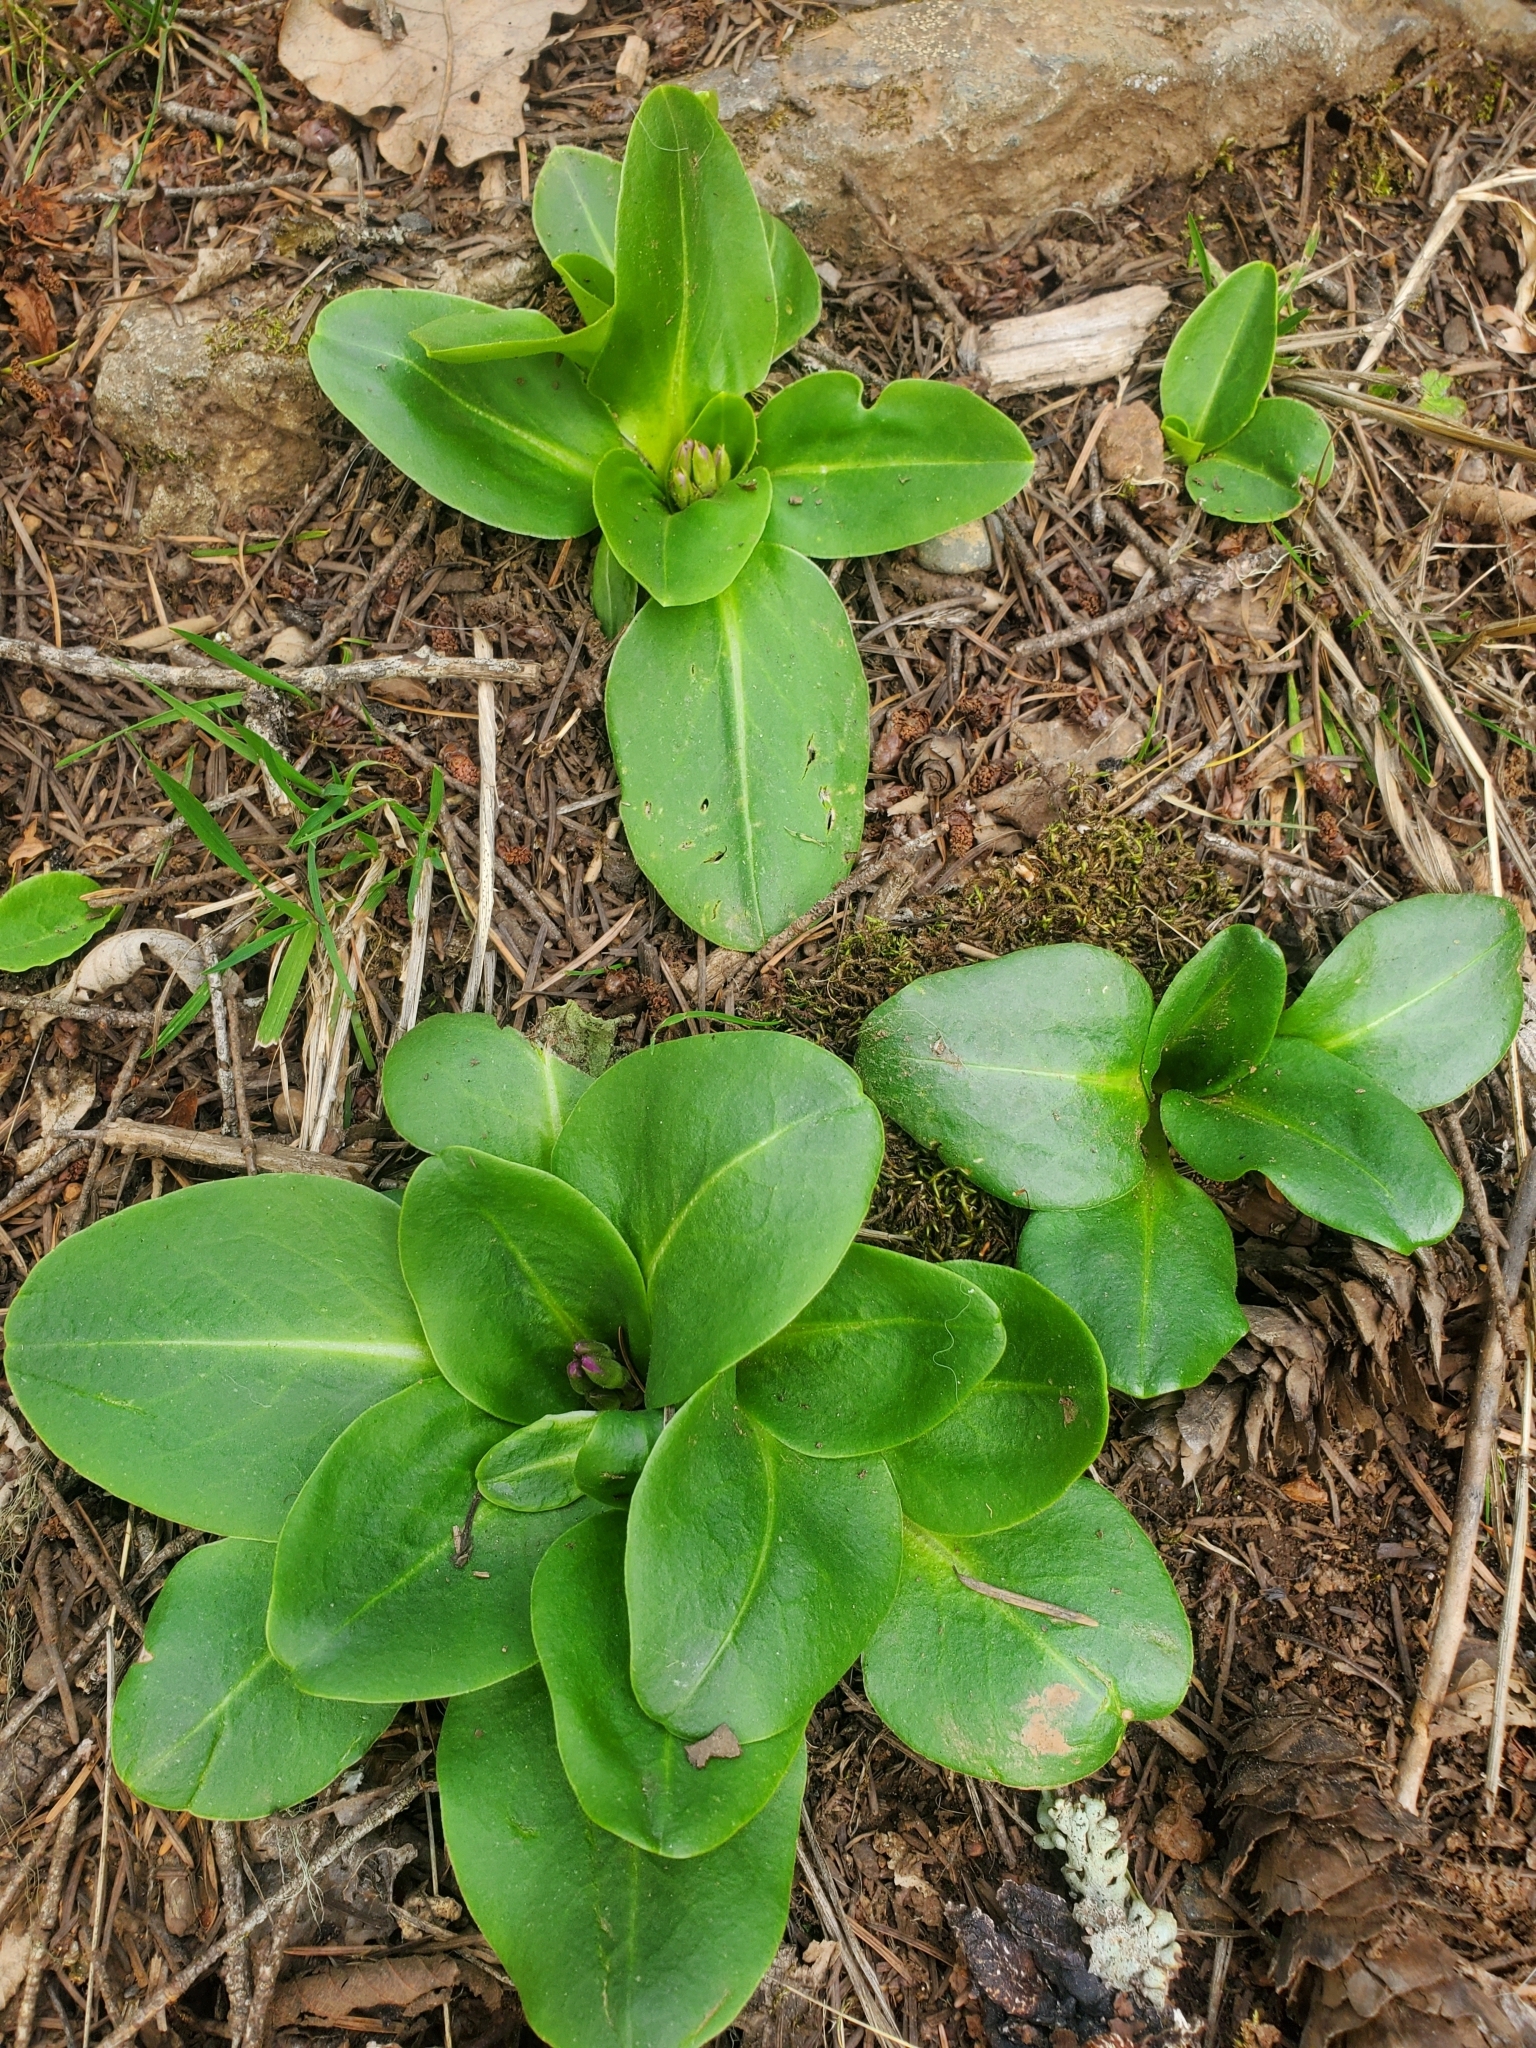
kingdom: Plantae
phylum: Tracheophyta
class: Magnoliopsida
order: Ericales
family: Primulaceae
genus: Dodecatheon
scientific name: Dodecatheon hendersonii
